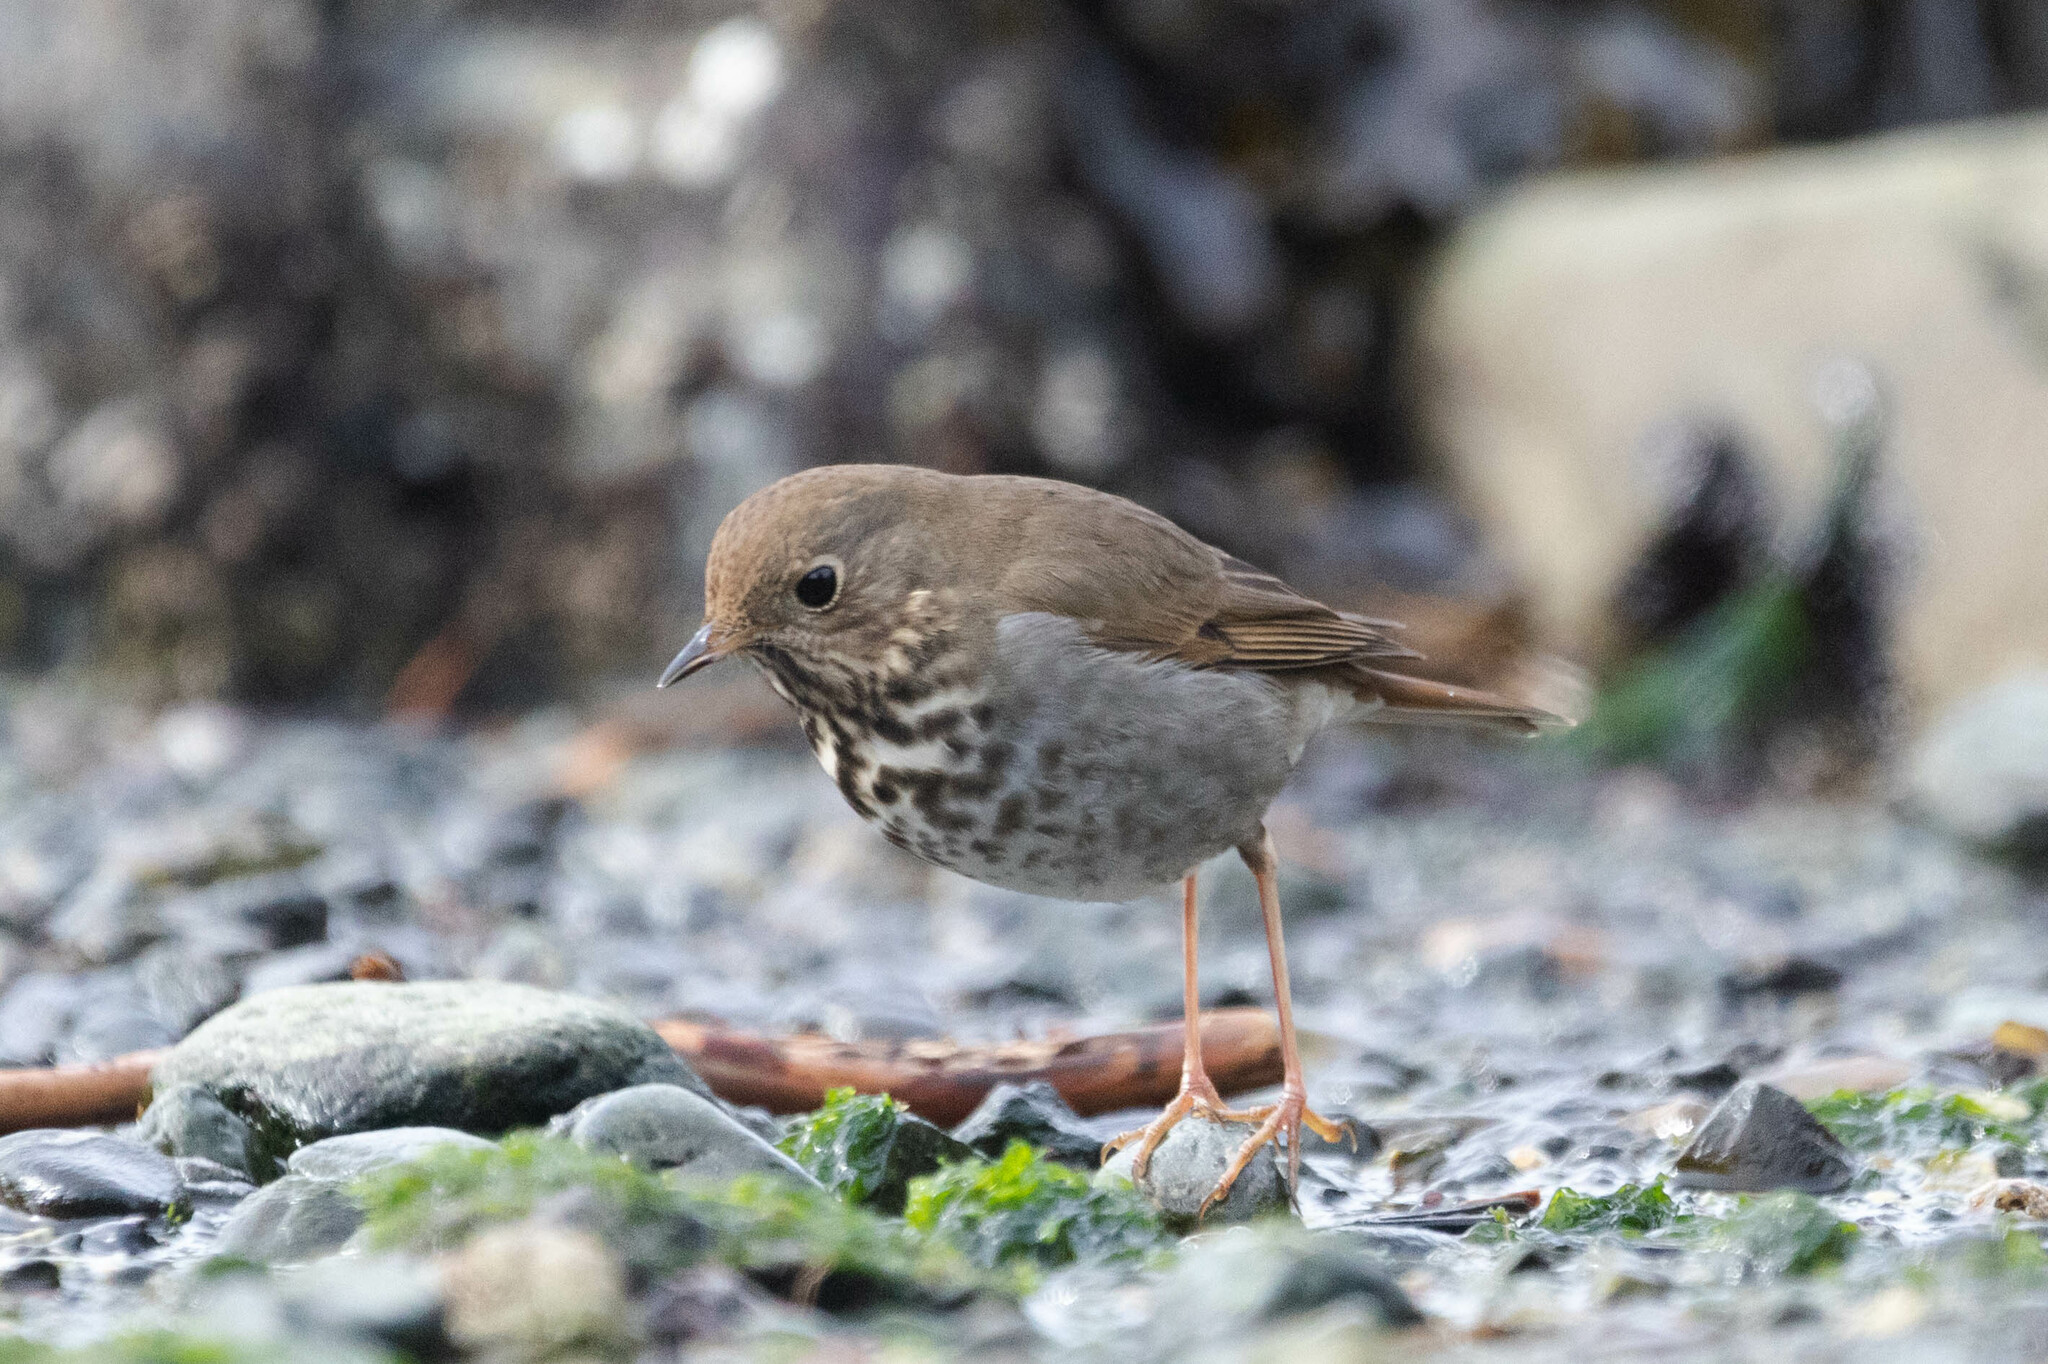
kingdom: Animalia
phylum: Chordata
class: Aves
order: Passeriformes
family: Turdidae
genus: Catharus
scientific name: Catharus guttatus
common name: Hermit thrush
